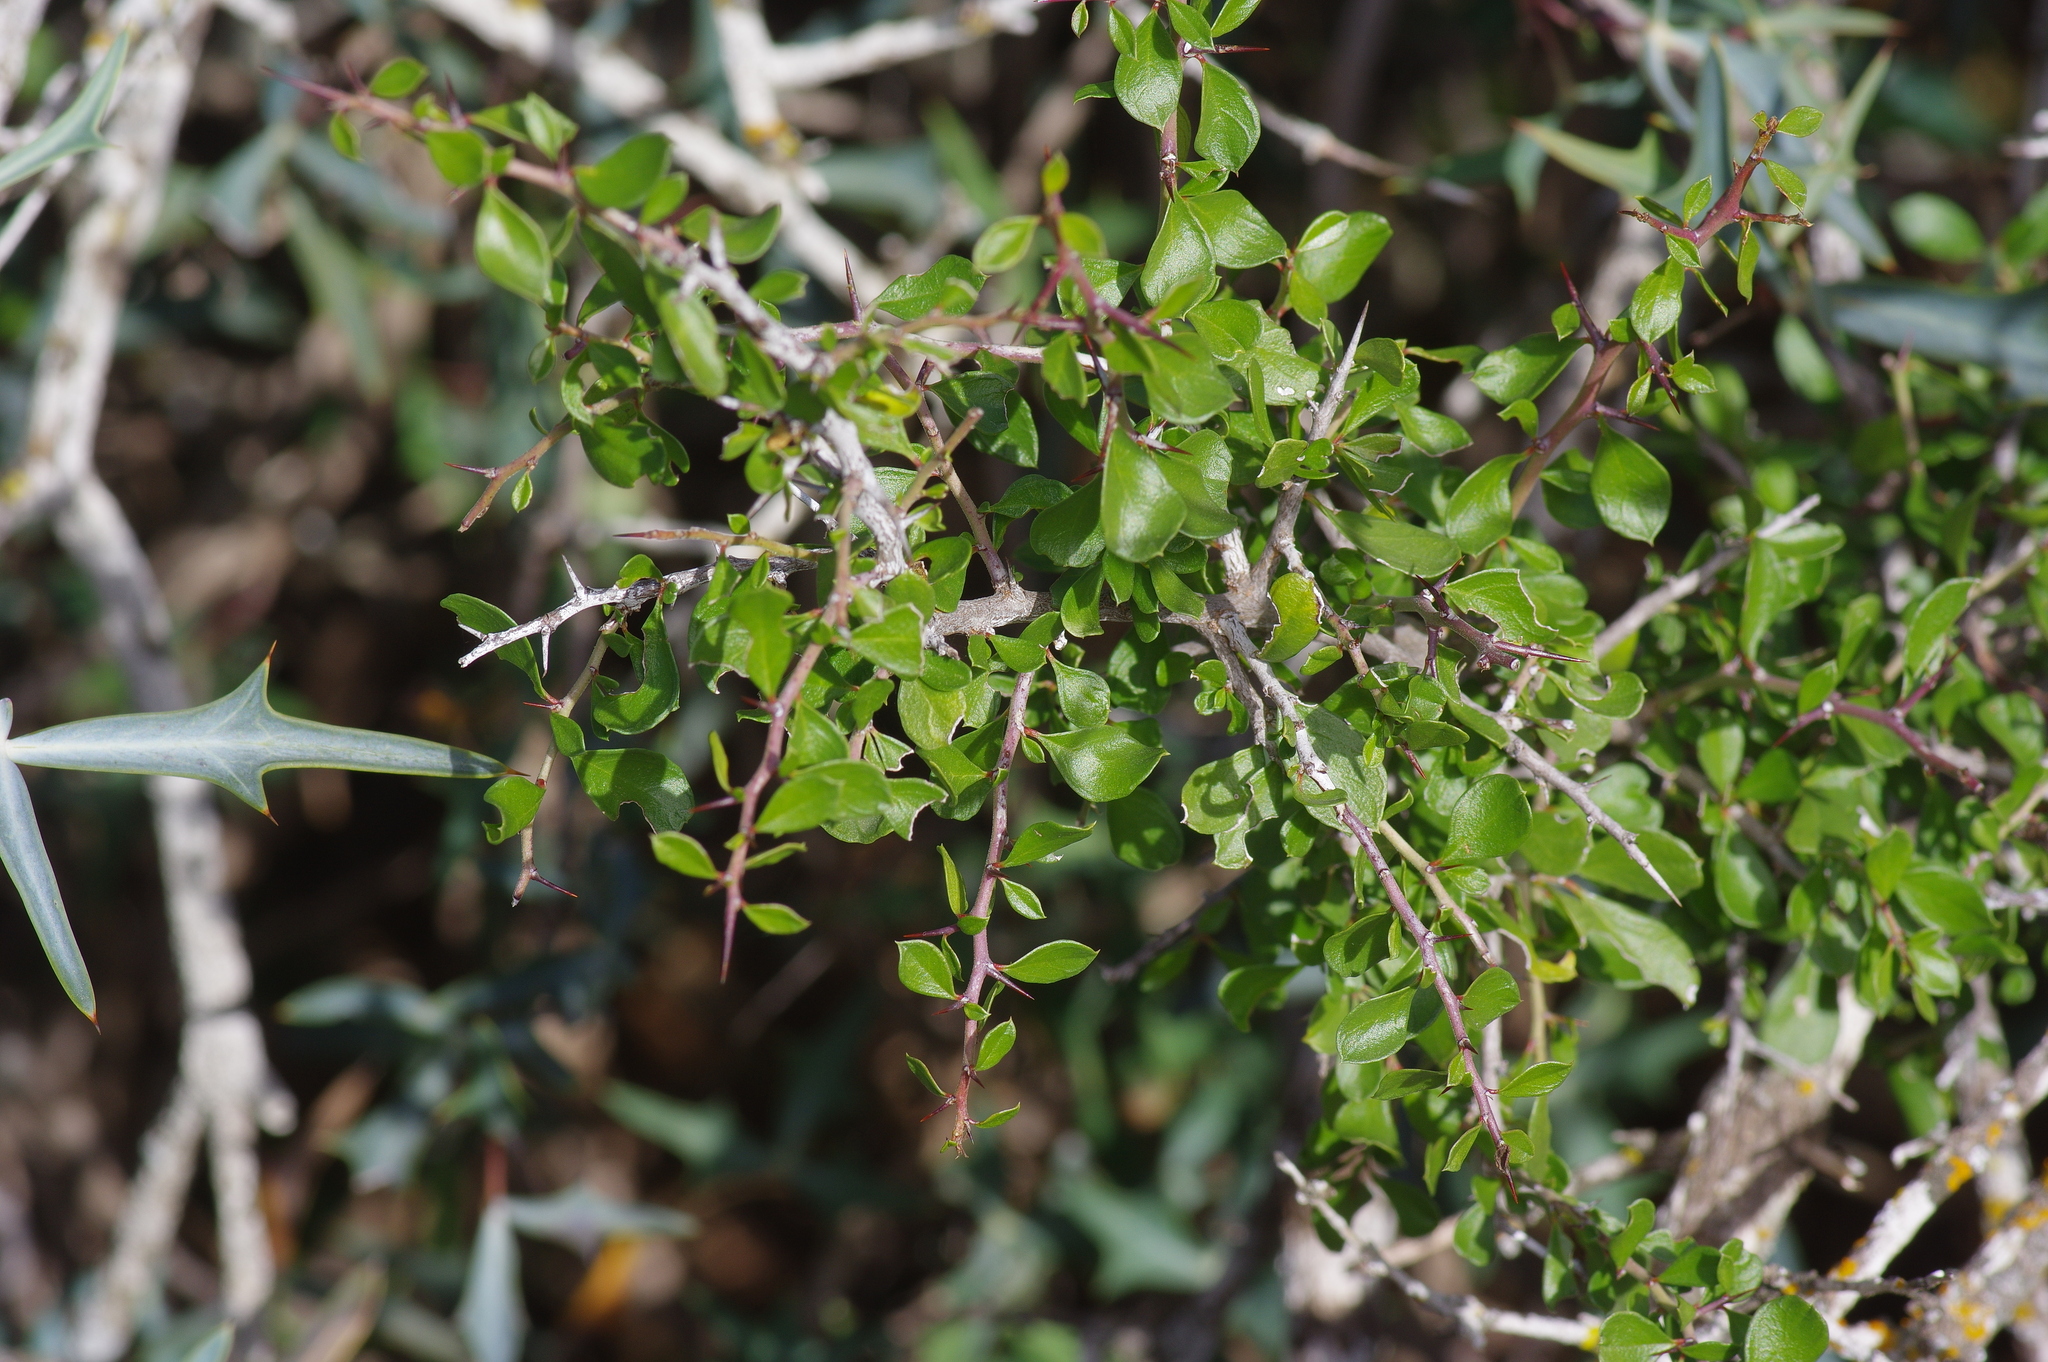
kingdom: Plantae
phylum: Tracheophyta
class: Magnoliopsida
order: Rosales
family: Rhamnaceae
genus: Condalia
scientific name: Condalia viridis
